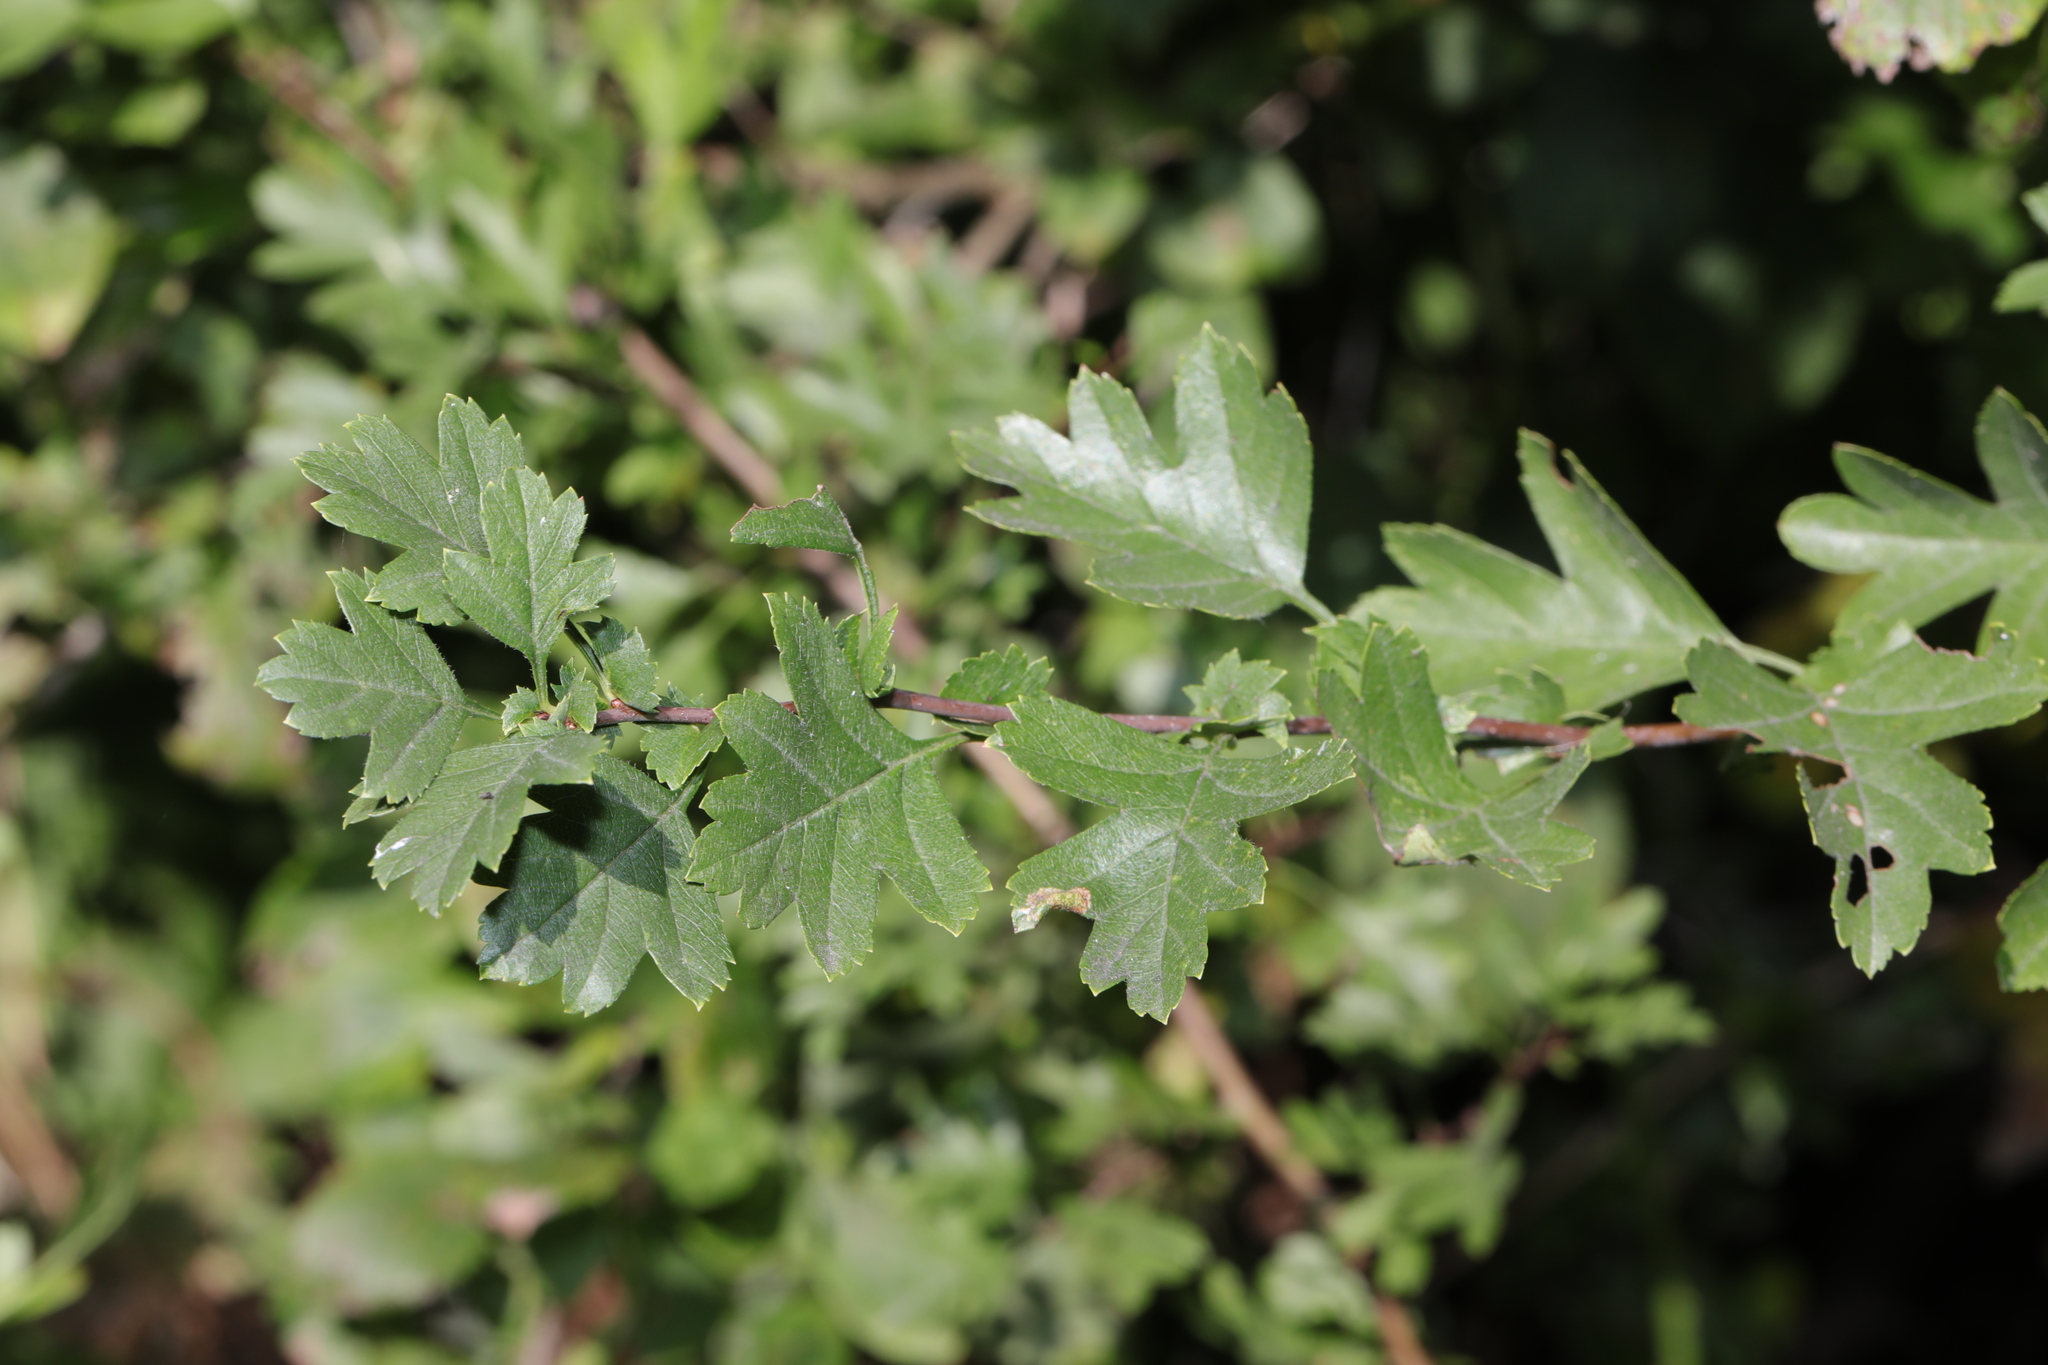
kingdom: Plantae
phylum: Tracheophyta
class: Magnoliopsida
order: Rosales
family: Rosaceae
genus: Crataegus
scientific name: Crataegus monogyna
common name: Hawthorn
